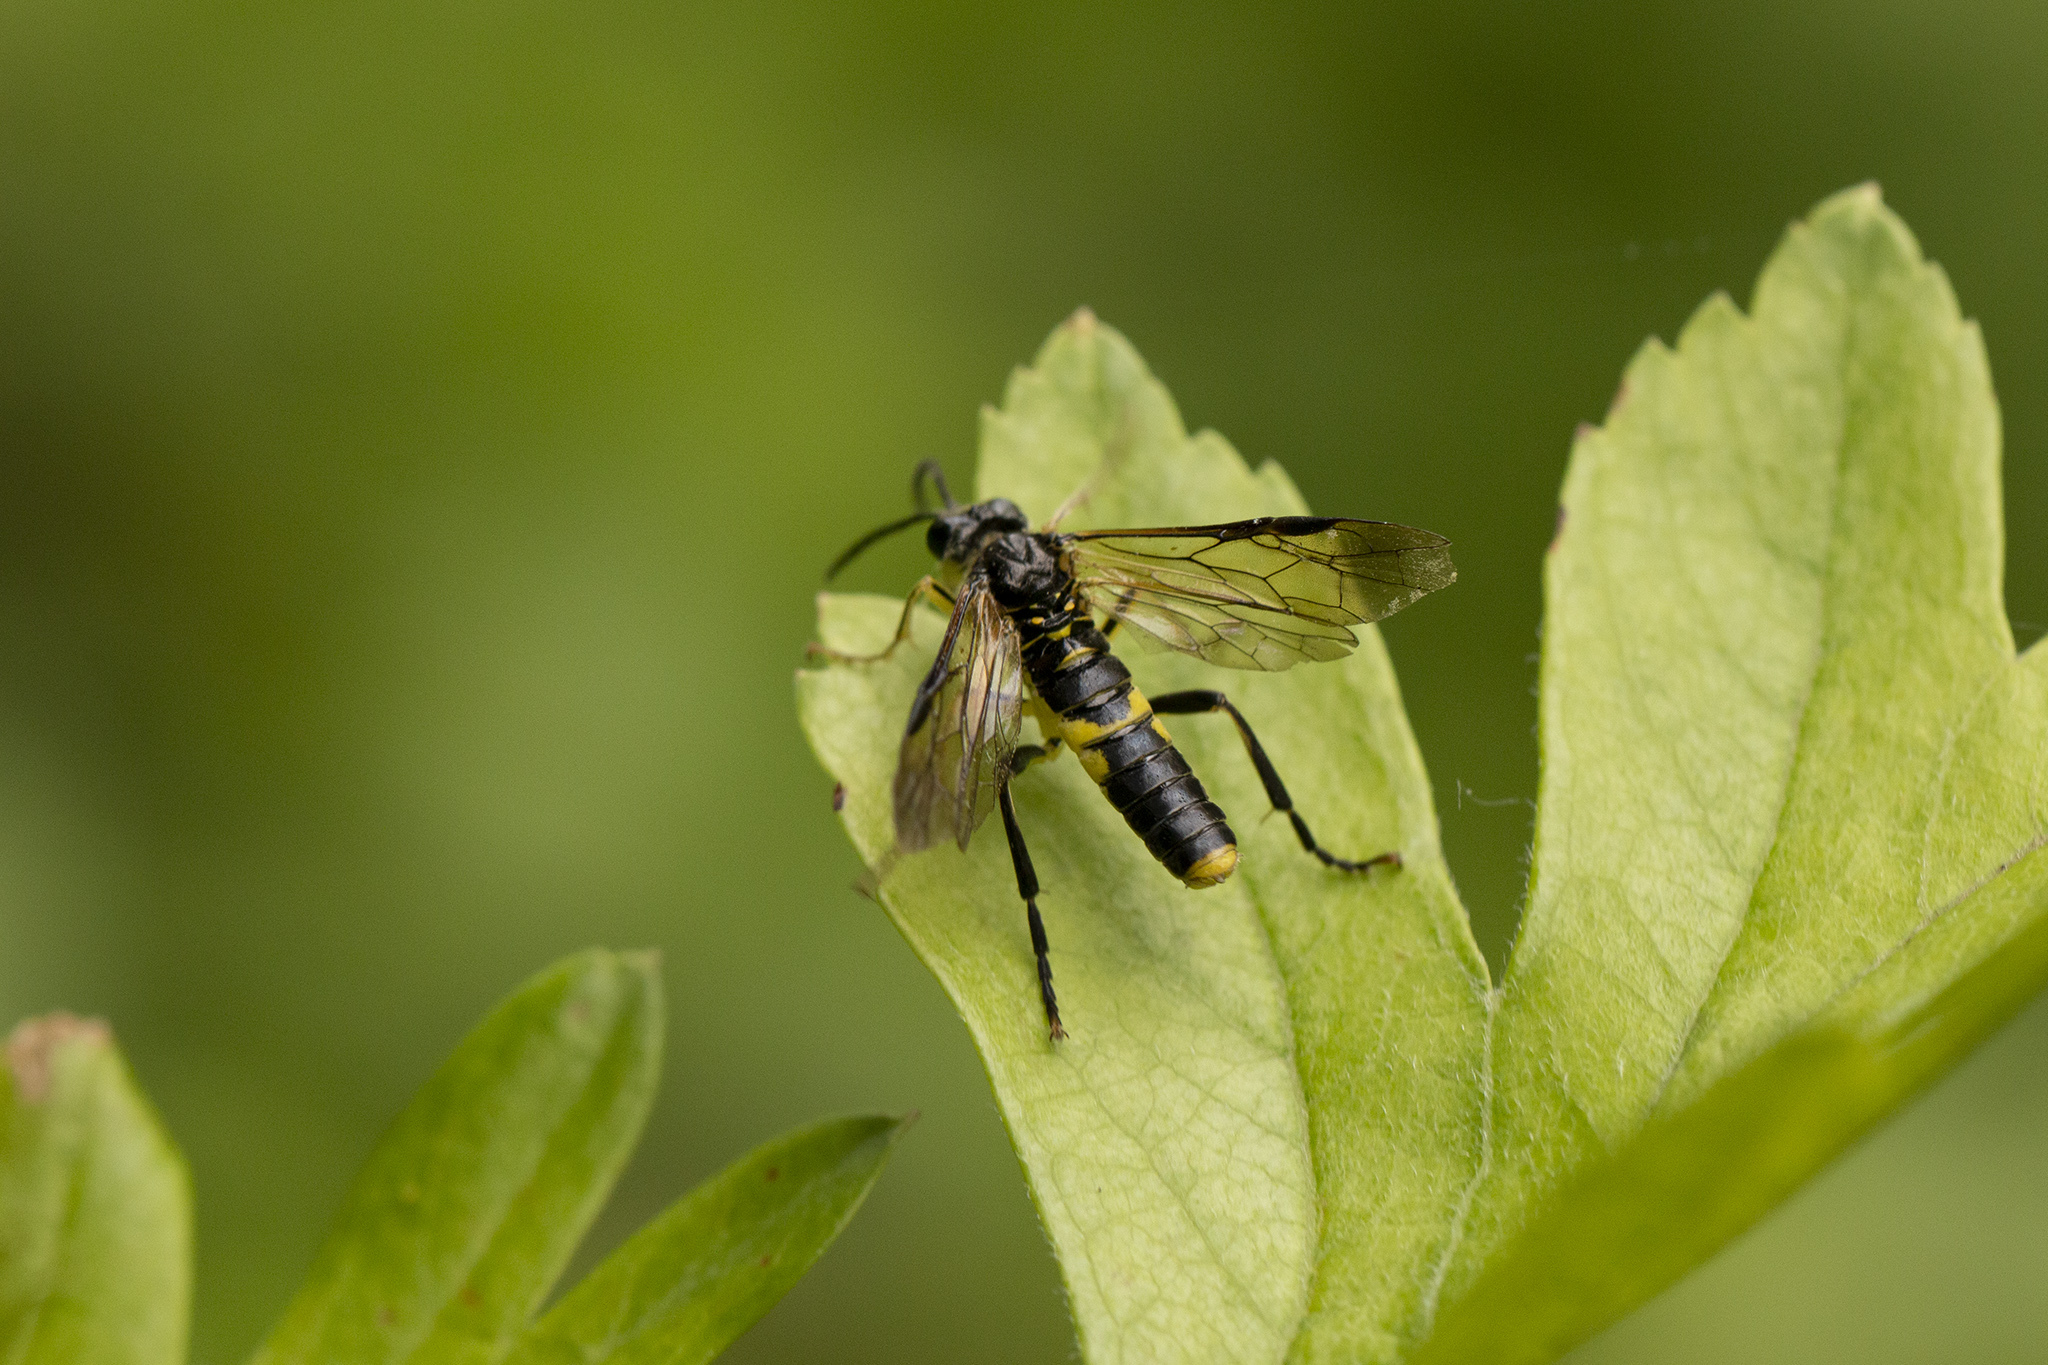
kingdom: Animalia
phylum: Arthropoda
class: Insecta
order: Hymenoptera
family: Tenthredinidae
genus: Tenthredo
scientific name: Tenthredo temula
